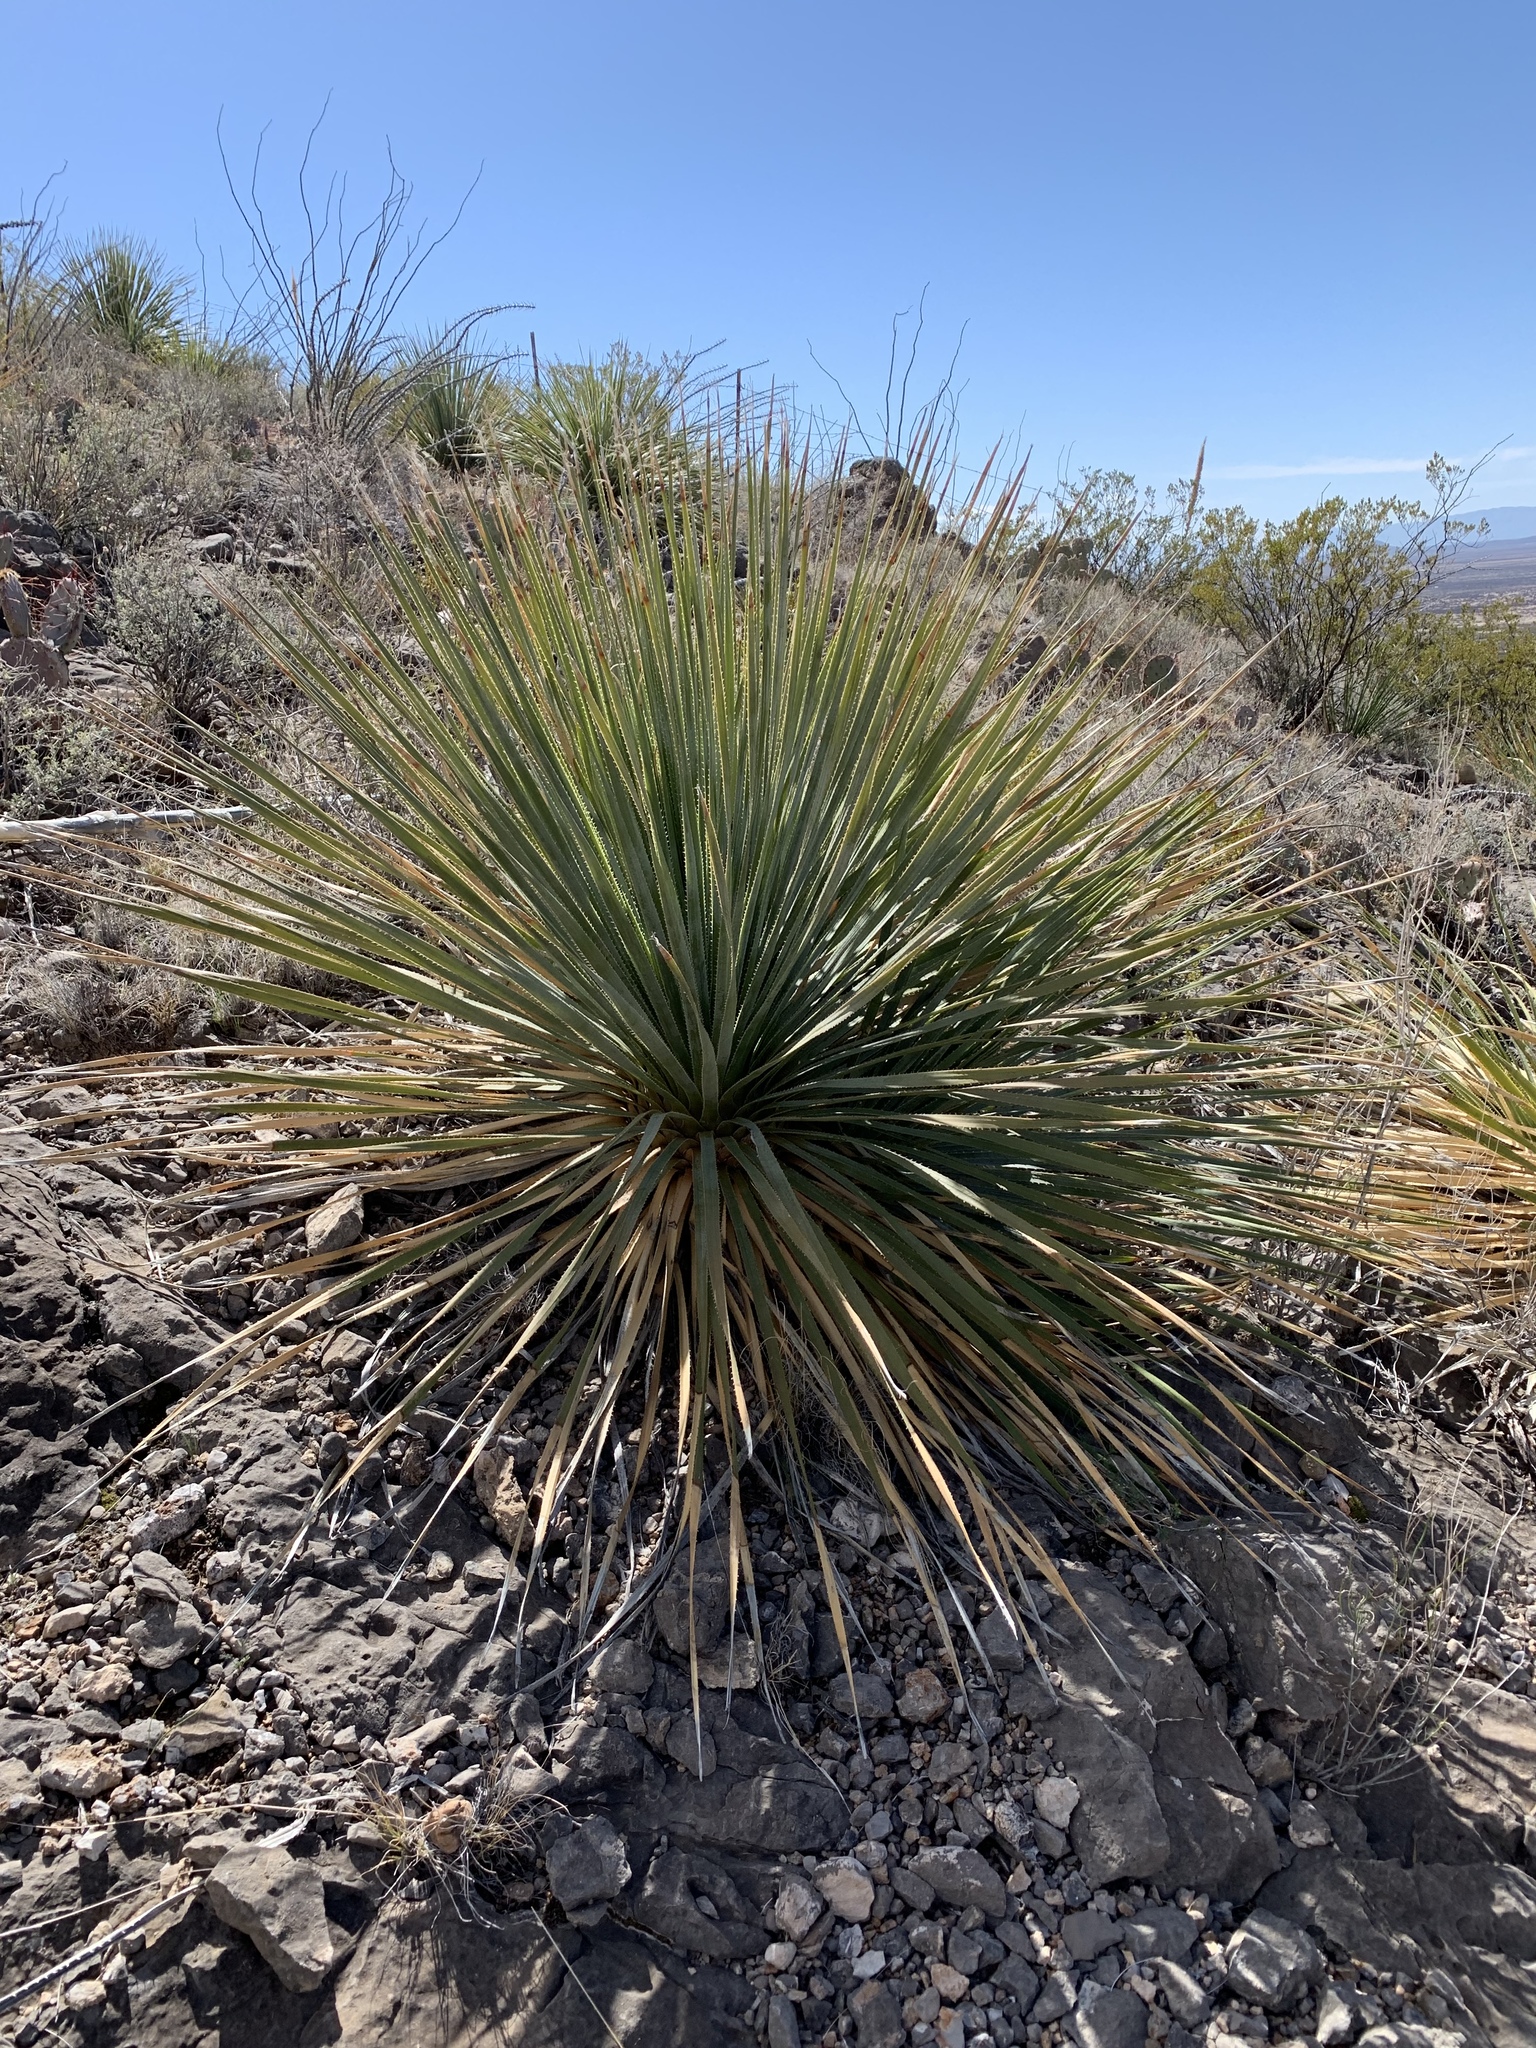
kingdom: Plantae
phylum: Tracheophyta
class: Liliopsida
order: Asparagales
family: Asparagaceae
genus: Dasylirion
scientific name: Dasylirion wheeleri
